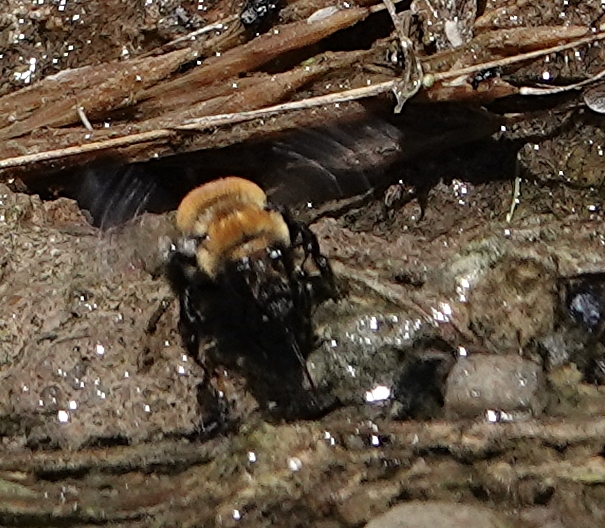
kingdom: Animalia
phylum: Arthropoda
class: Insecta
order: Hymenoptera
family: Apidae
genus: Anthophora
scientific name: Anthophora bomboides
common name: Bumble-bee-mimic digger bee
